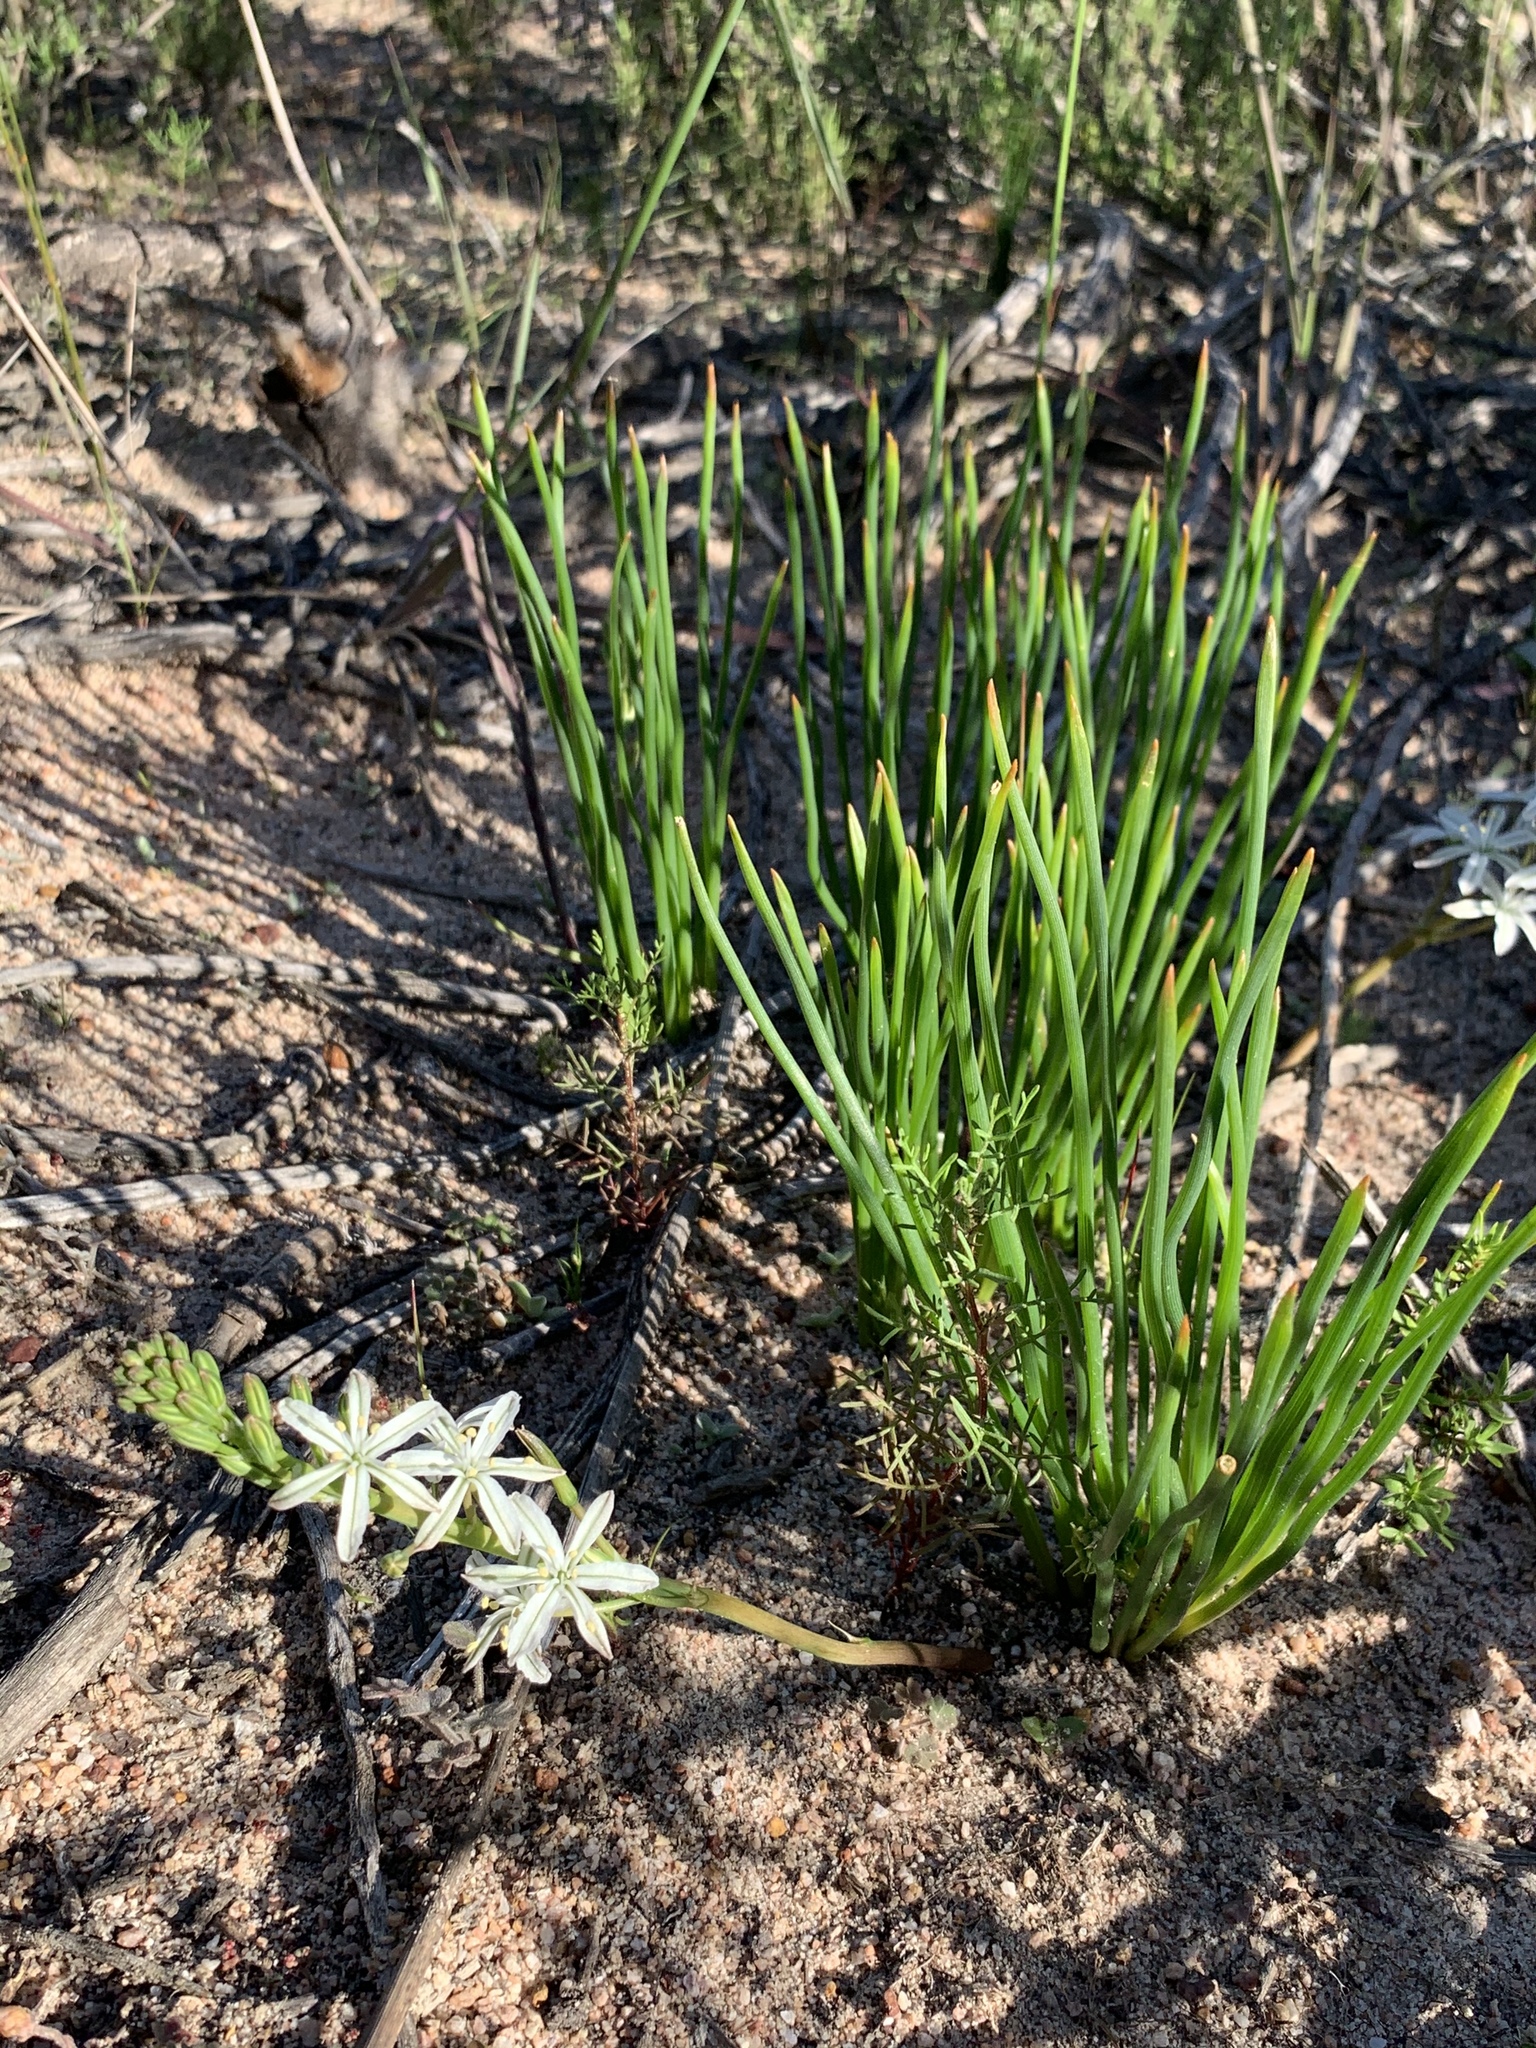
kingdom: Plantae
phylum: Tracheophyta
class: Liliopsida
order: Asparagales
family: Asphodelaceae
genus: Trachyandra
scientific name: Trachyandra chlamydophylla
